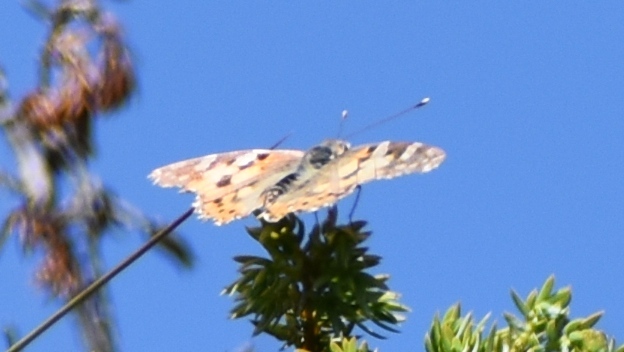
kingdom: Animalia
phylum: Arthropoda
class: Insecta
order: Lepidoptera
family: Nymphalidae
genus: Vanessa
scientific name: Vanessa cardui
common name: Painted lady
